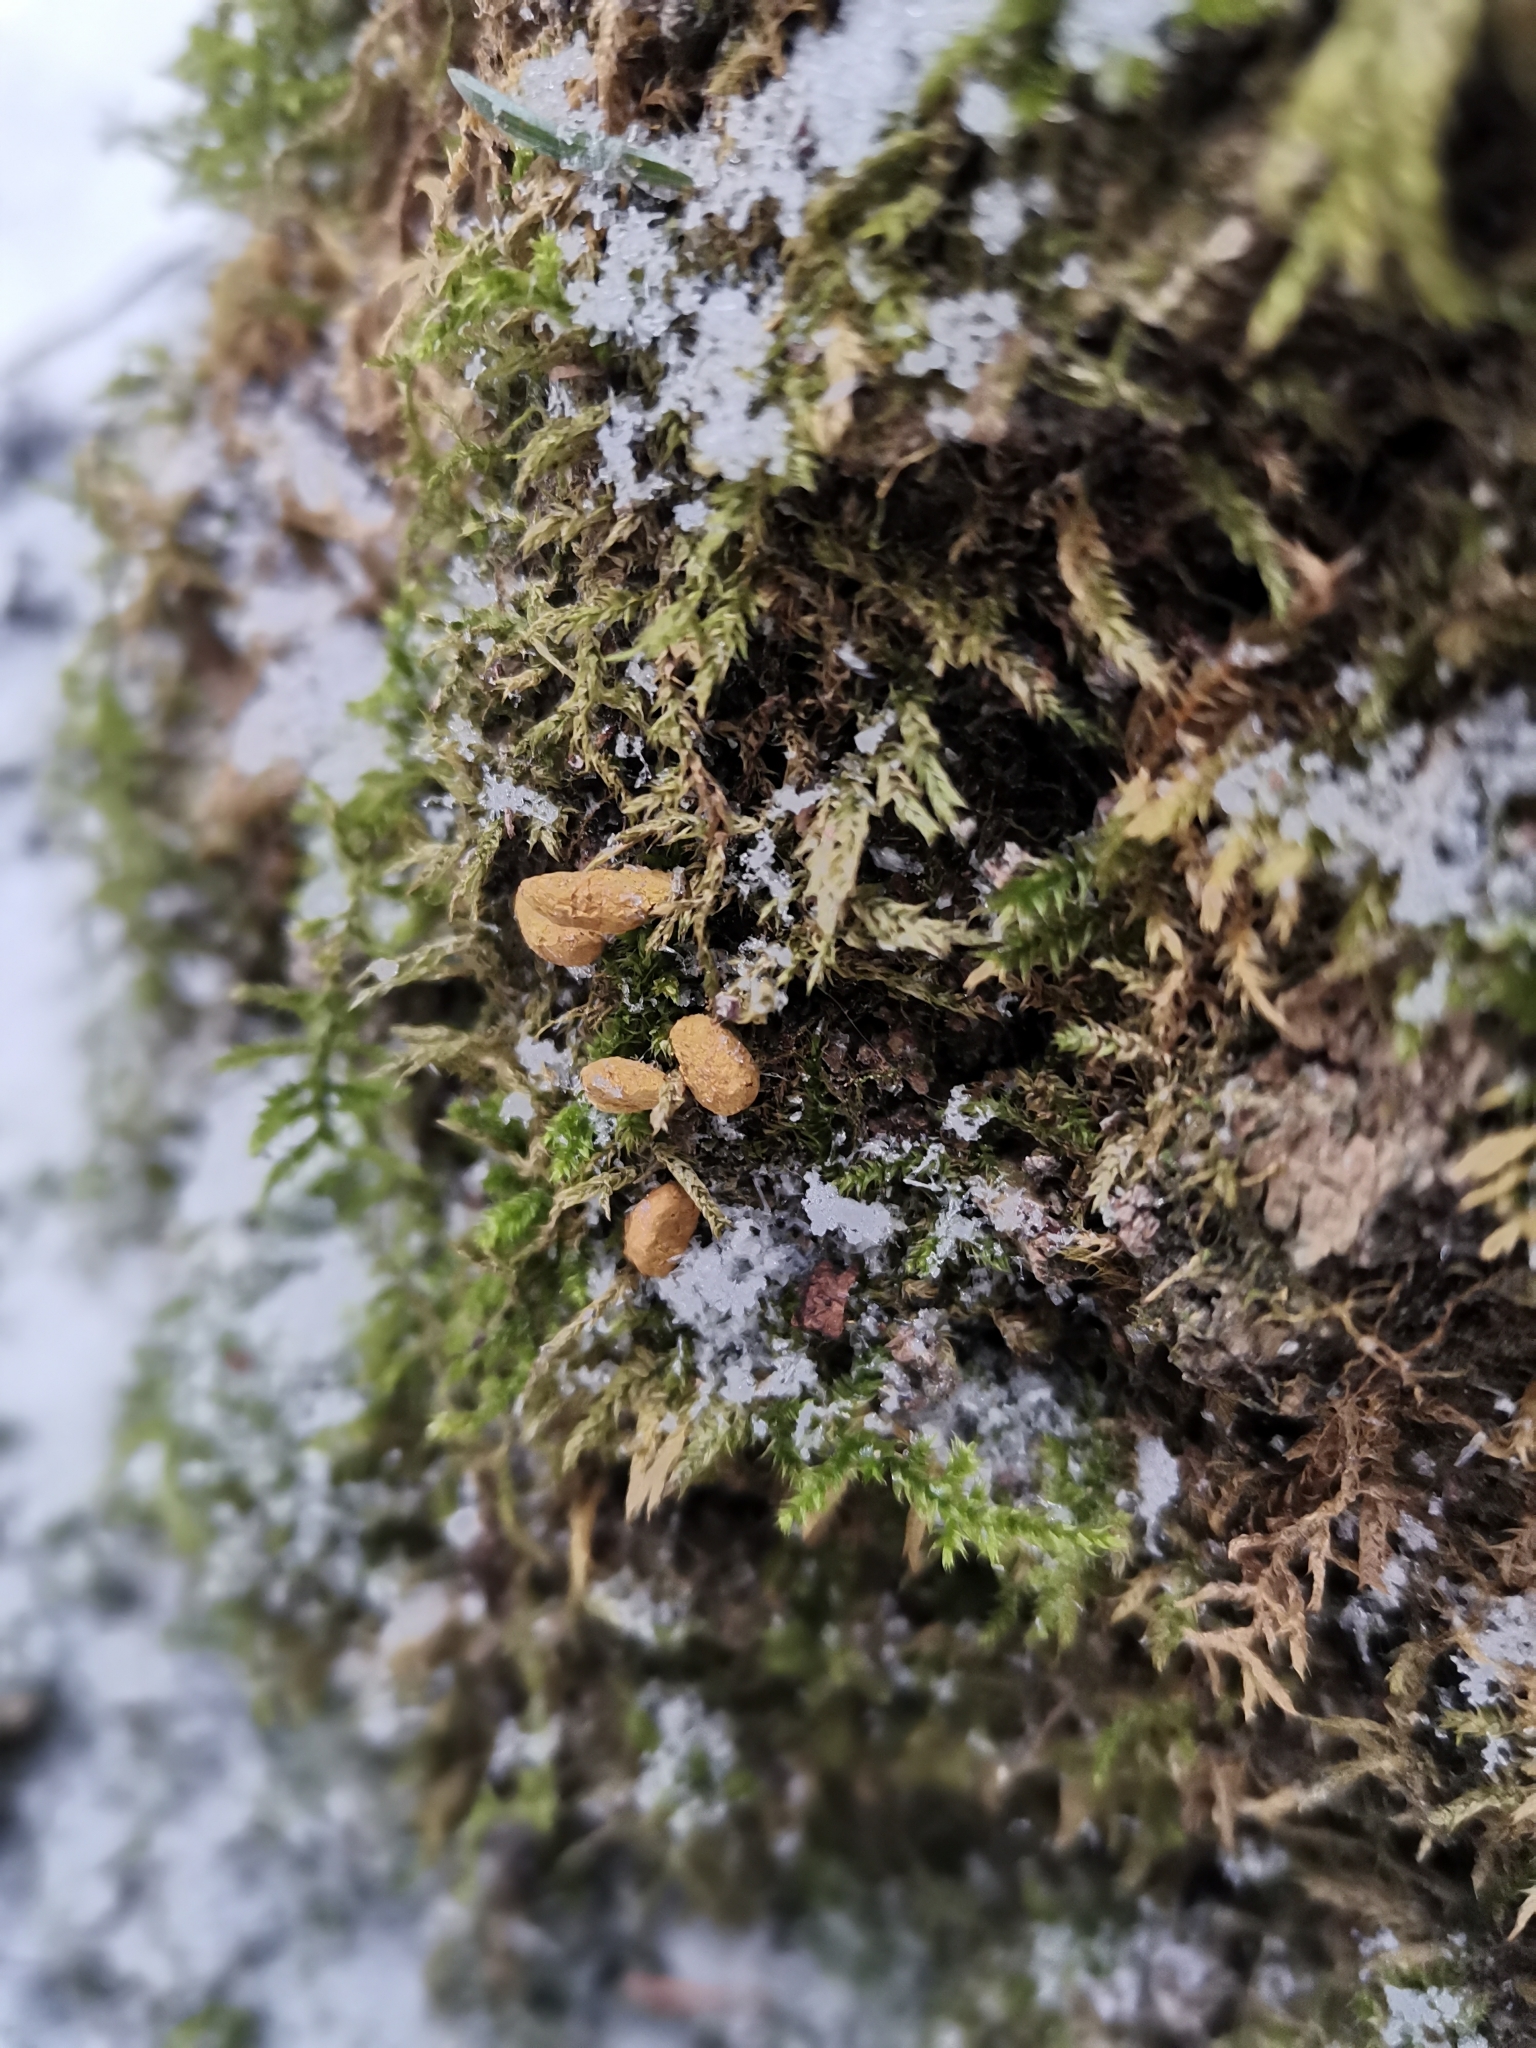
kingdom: Animalia
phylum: Chordata
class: Mammalia
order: Rodentia
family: Sciuridae
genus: Pteromys
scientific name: Pteromys volans
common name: Siberian flying squirrel
